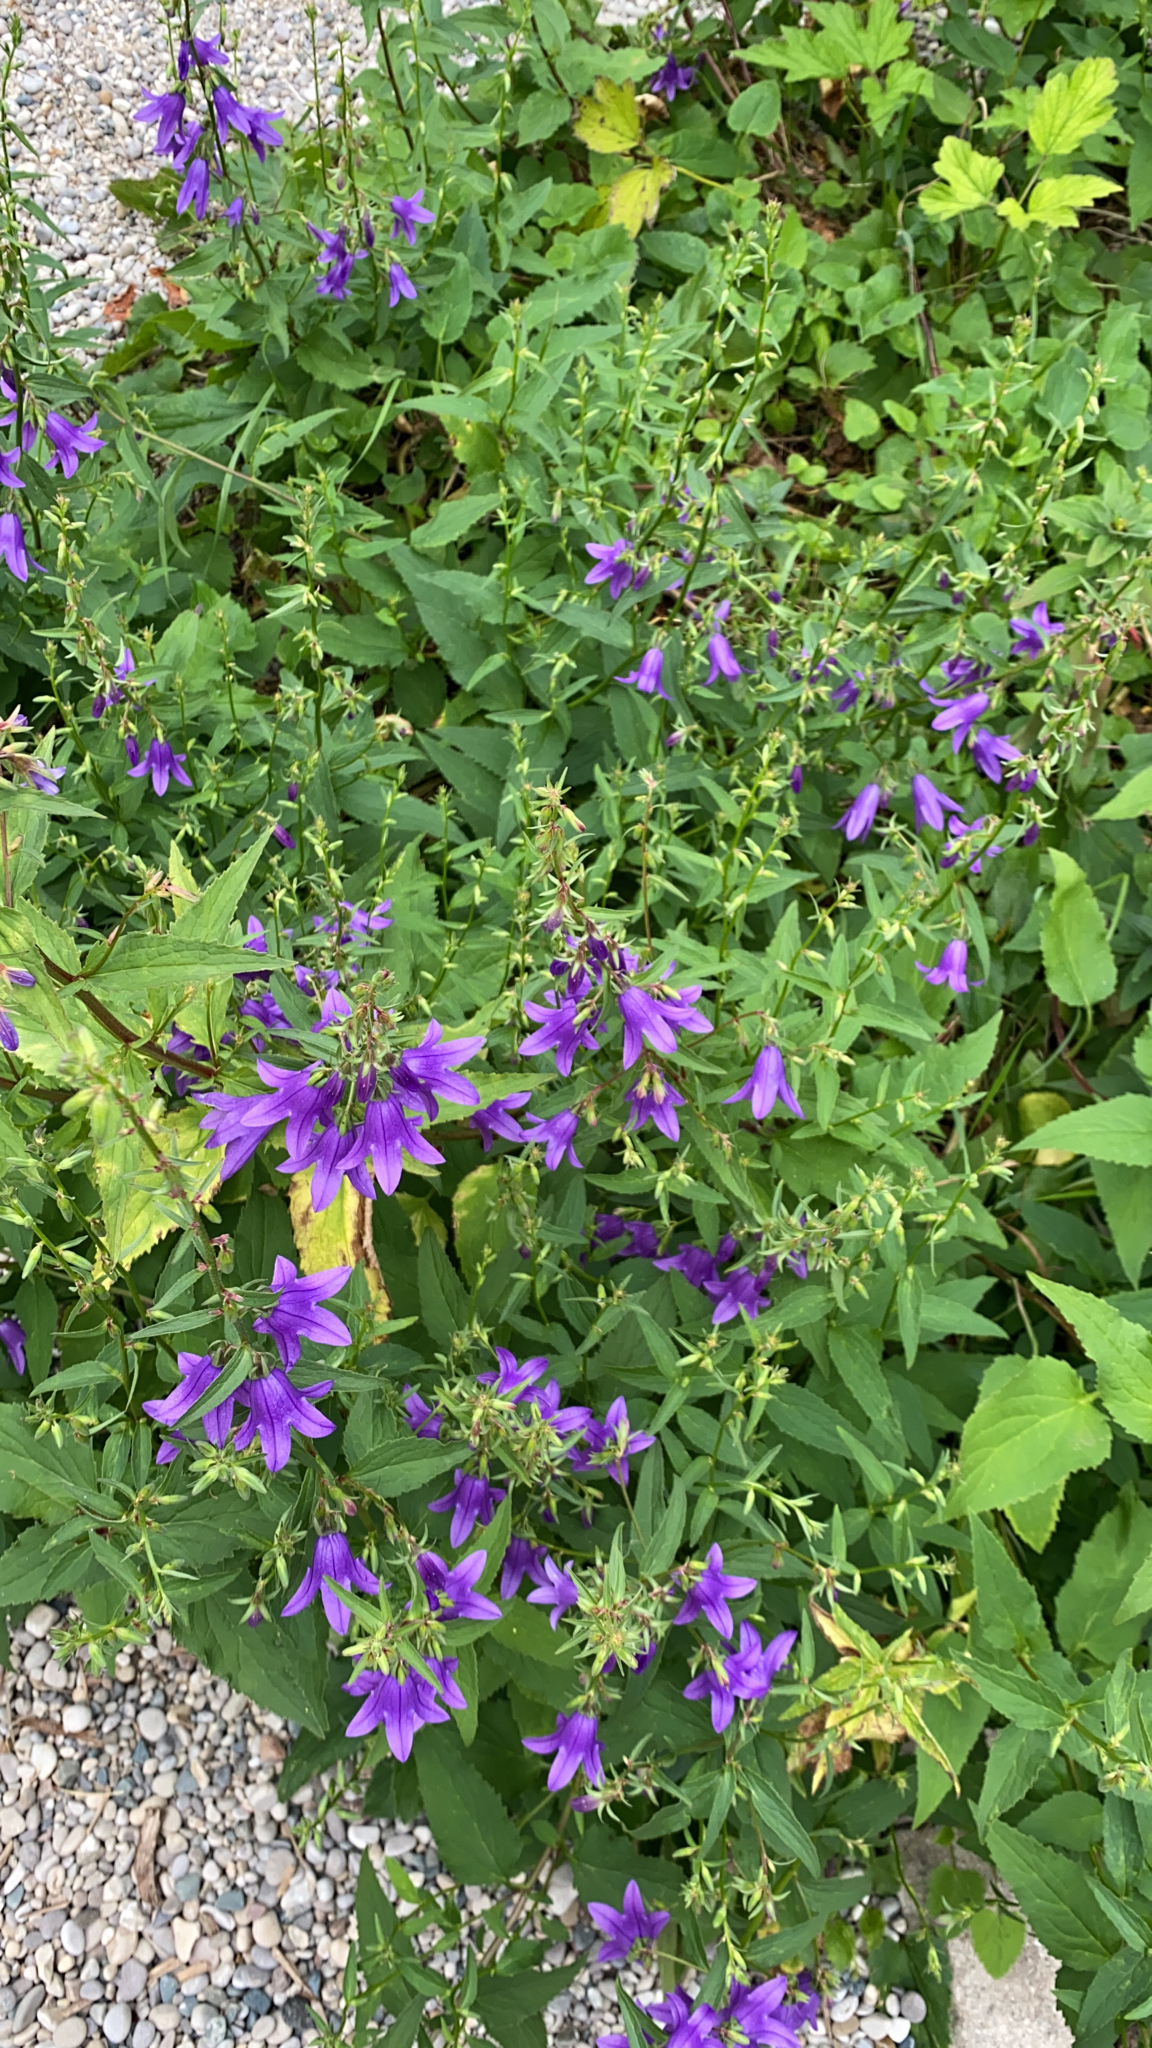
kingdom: Plantae
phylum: Tracheophyta
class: Magnoliopsida
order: Asterales
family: Campanulaceae
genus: Campanula
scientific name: Campanula rapunculoides
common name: Creeping bellflower
